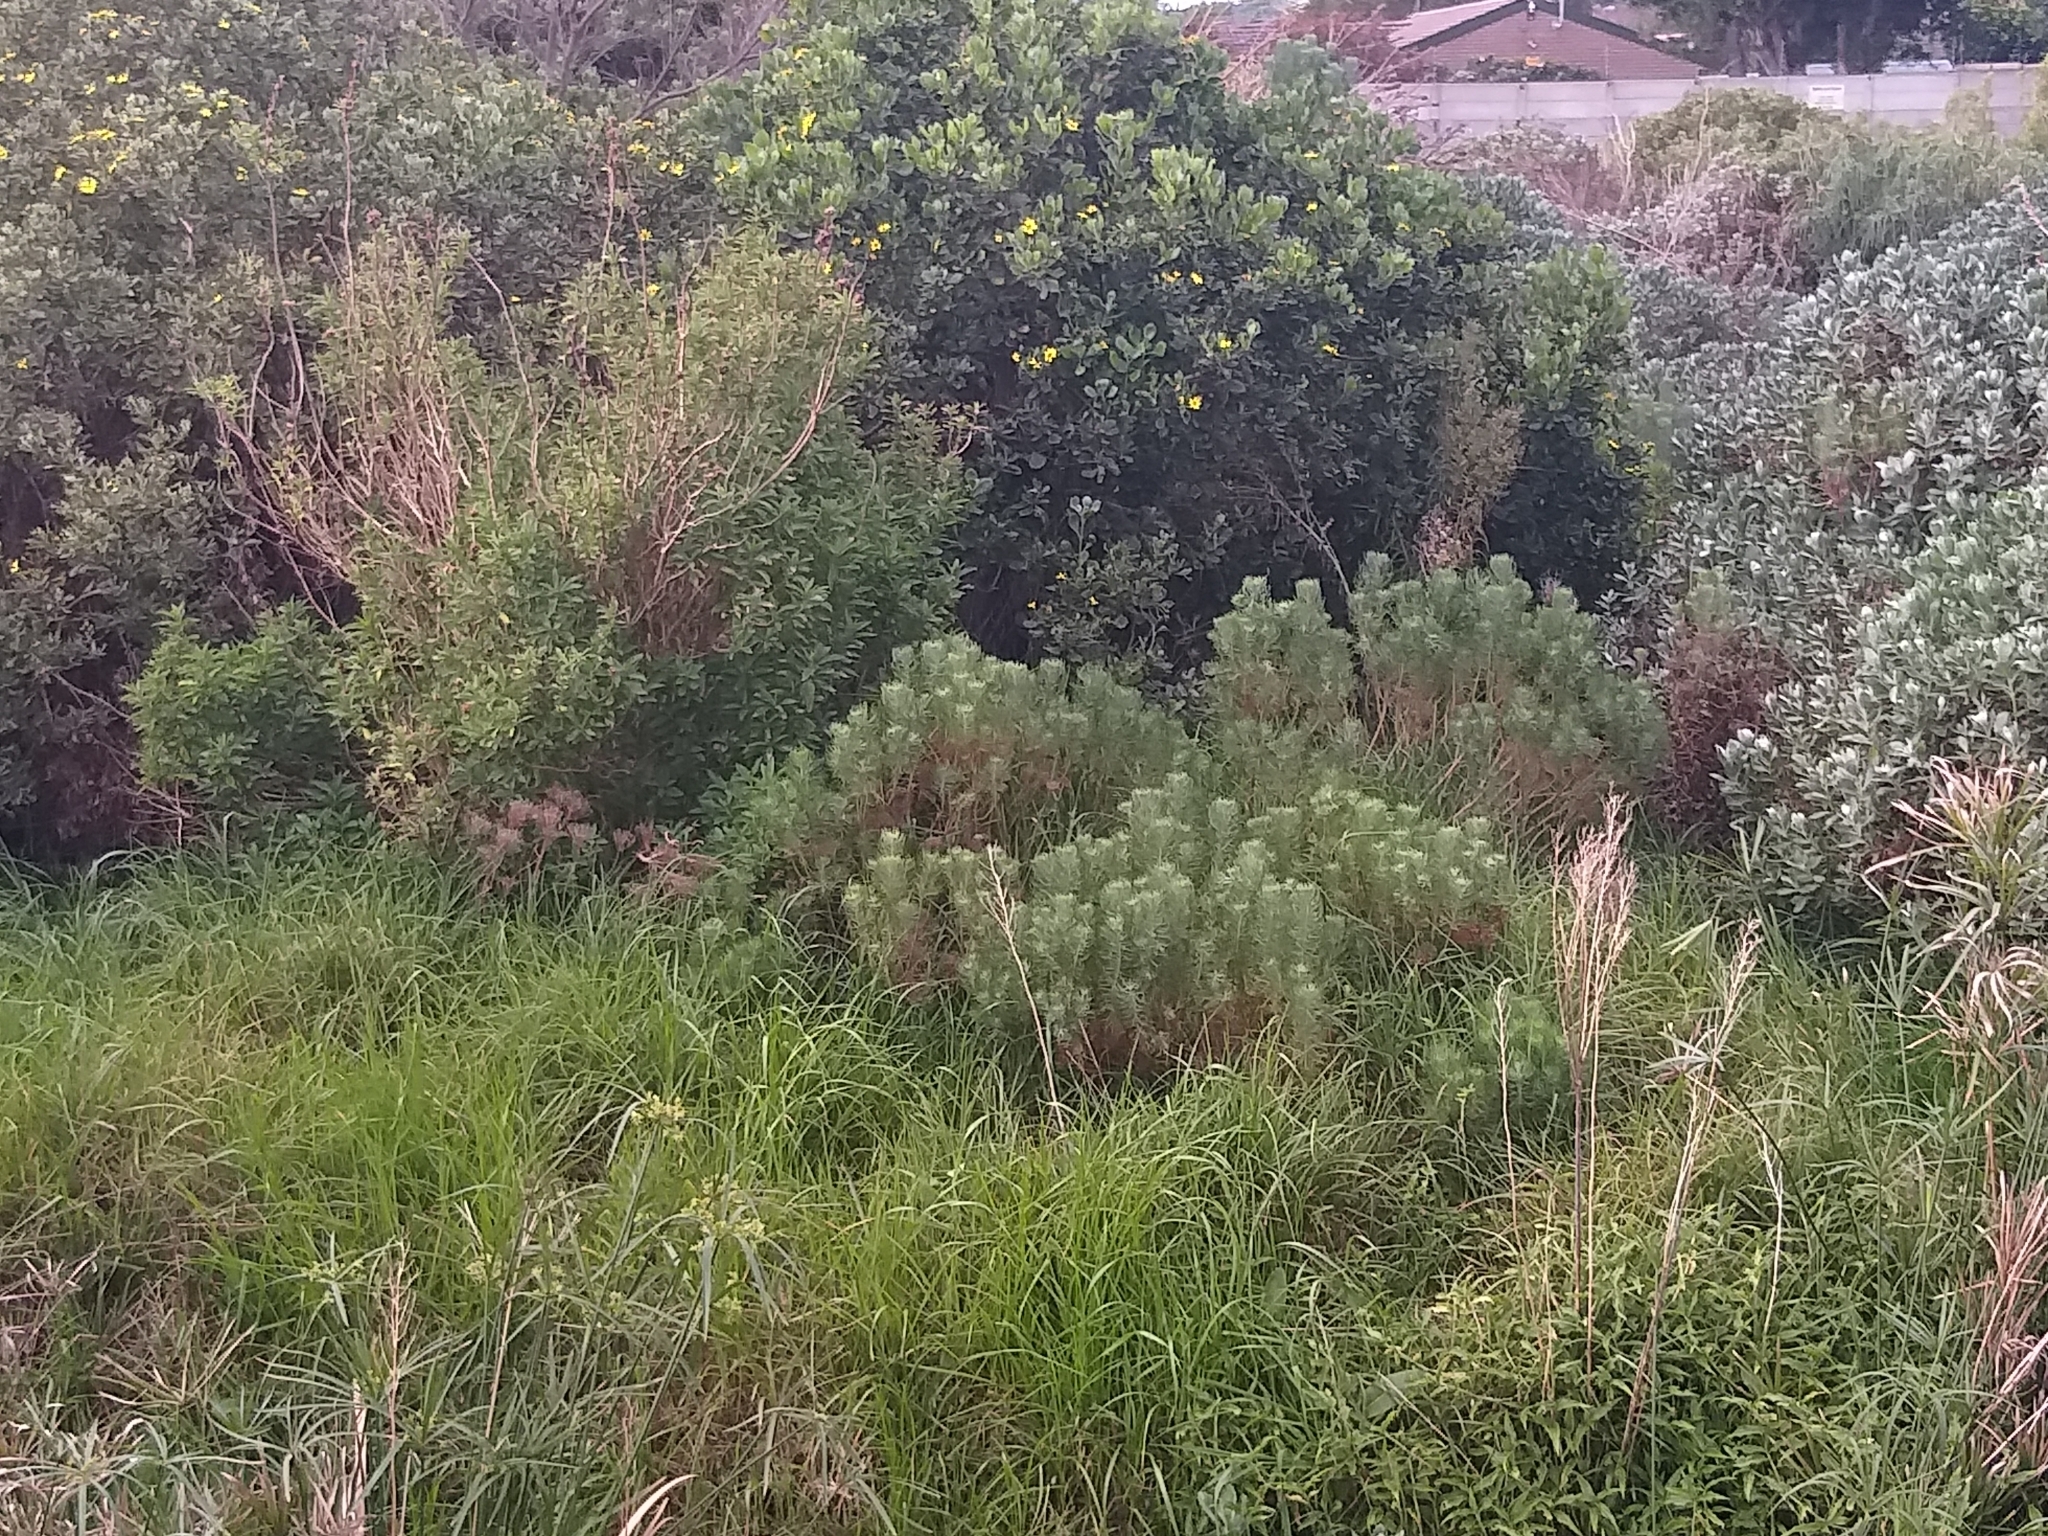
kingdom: Plantae
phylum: Tracheophyta
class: Magnoliopsida
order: Asterales
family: Asteraceae
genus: Athanasia
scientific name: Athanasia crithmifolia
